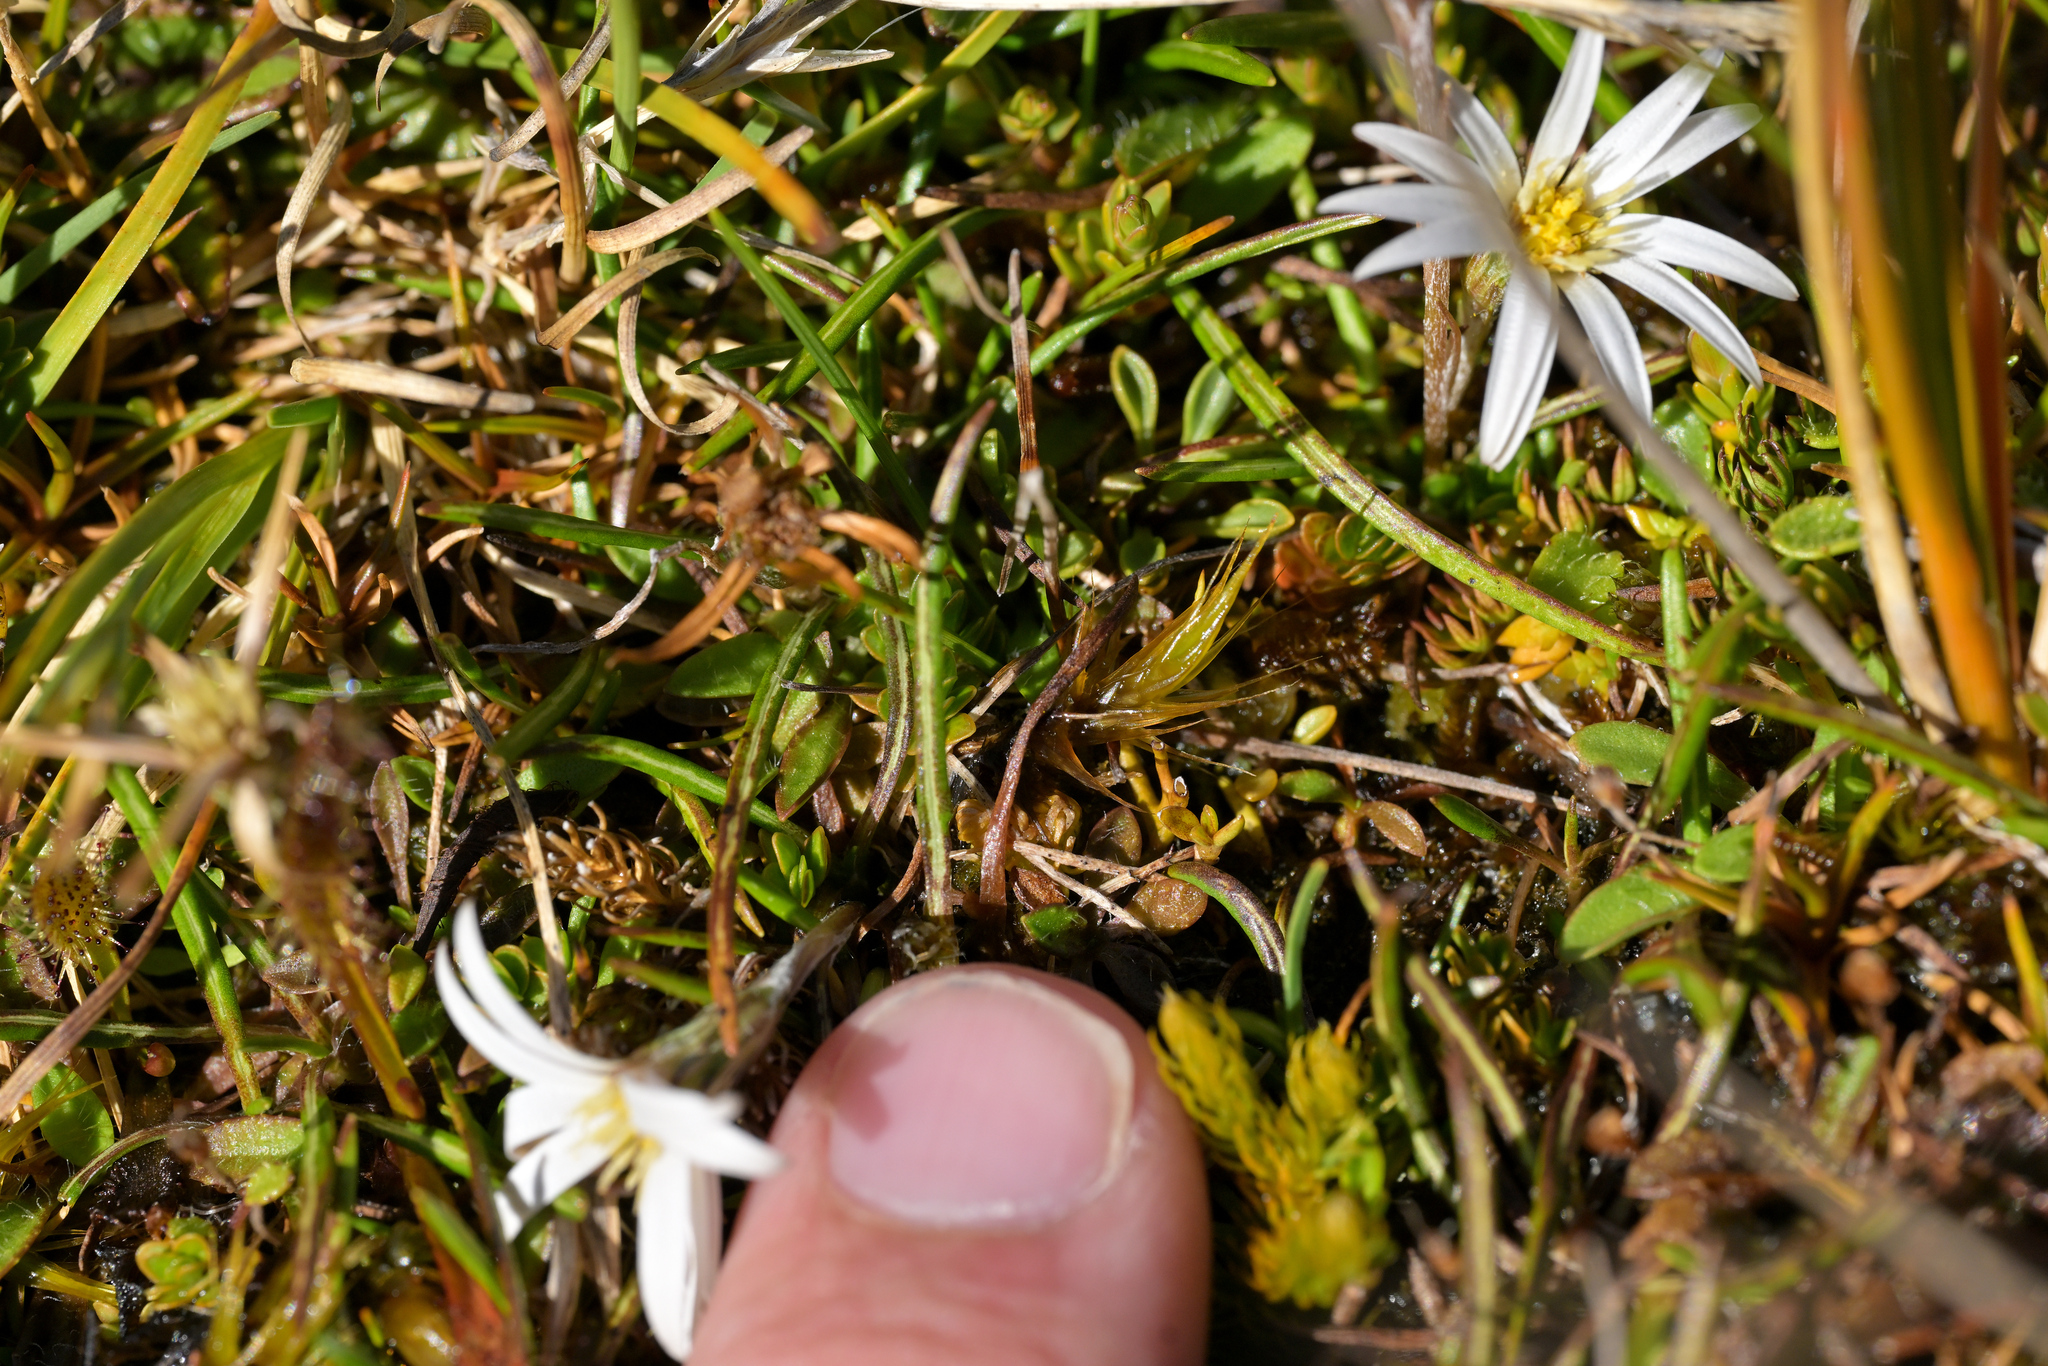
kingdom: Plantae
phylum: Tracheophyta
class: Magnoliopsida
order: Asterales
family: Asteraceae
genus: Celmisia
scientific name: Celmisia alpina
